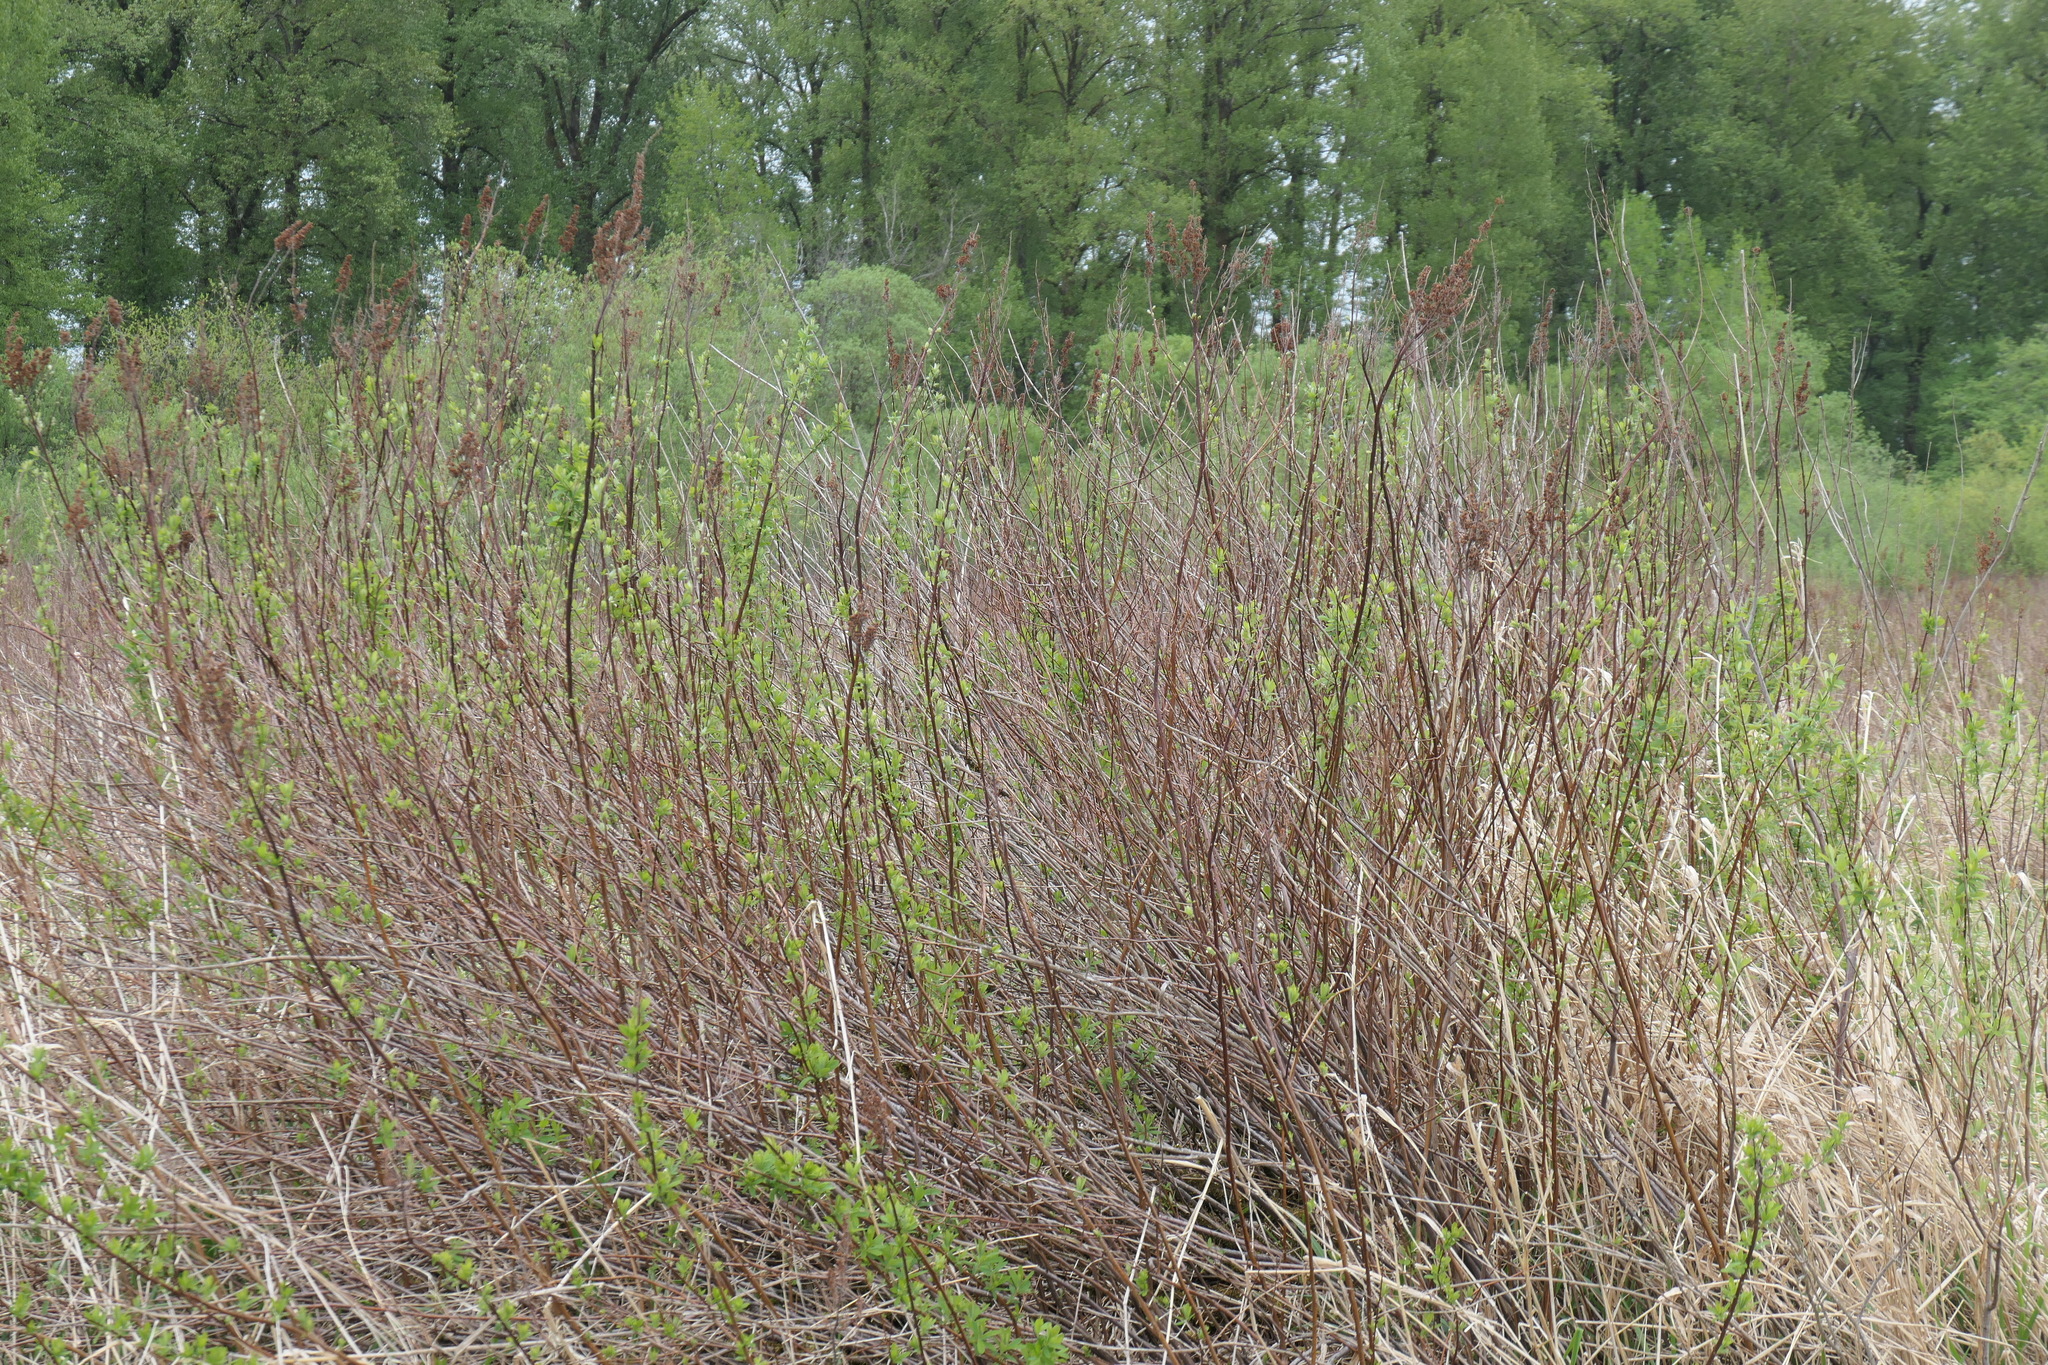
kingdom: Plantae
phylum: Tracheophyta
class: Magnoliopsida
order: Rosales
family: Rosaceae
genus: Spiraea
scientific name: Spiraea douglasii
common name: Steeplebush
